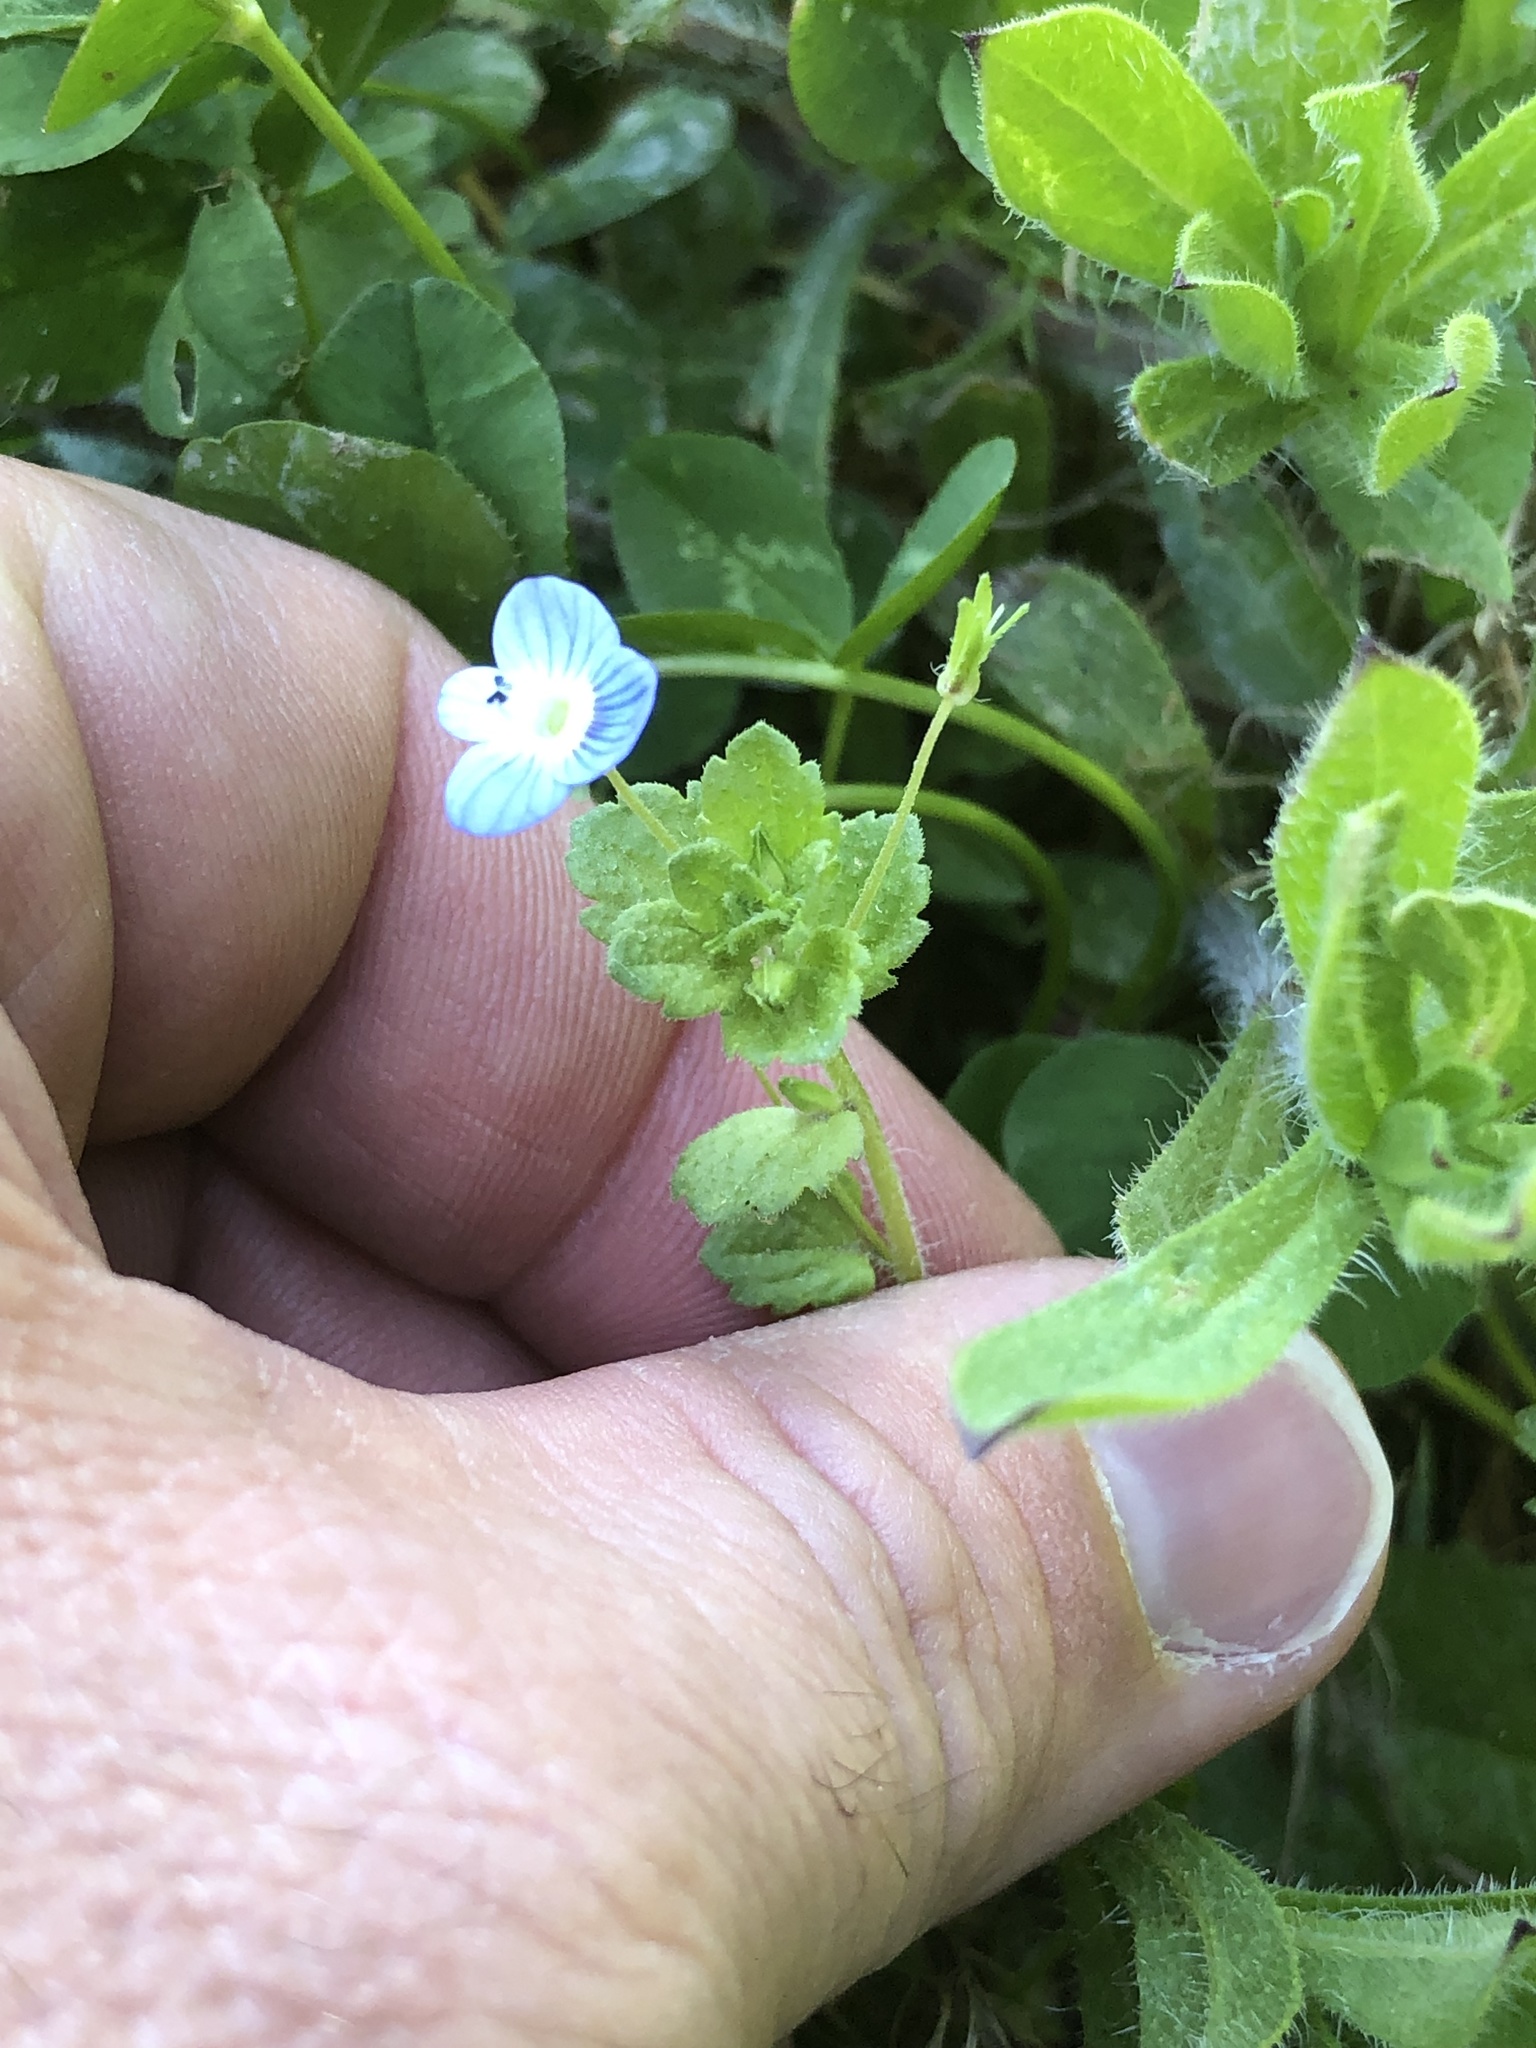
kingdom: Plantae
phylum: Tracheophyta
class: Magnoliopsida
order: Lamiales
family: Plantaginaceae
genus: Veronica
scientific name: Veronica persica
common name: Common field-speedwell
